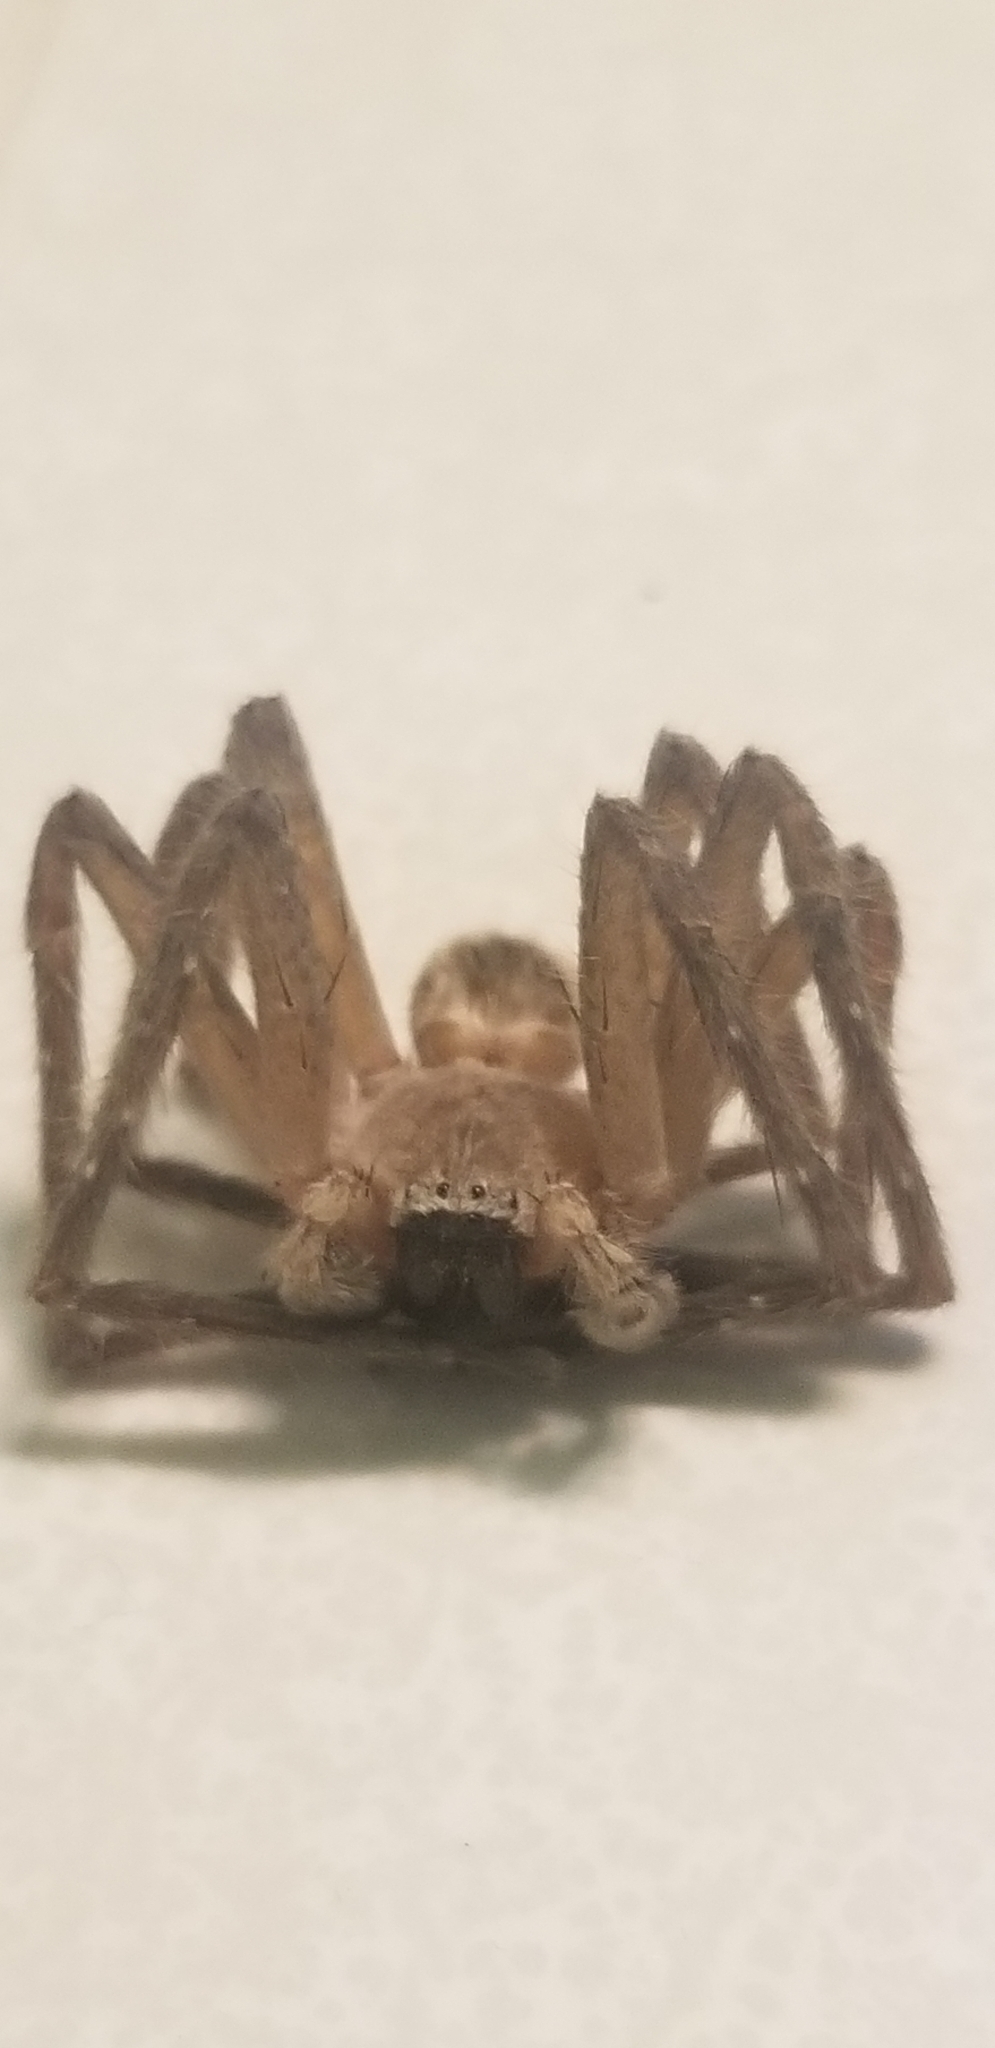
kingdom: Animalia
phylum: Arthropoda
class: Arachnida
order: Araneae
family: Sparassidae
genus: Olios
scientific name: Olios giganteus
